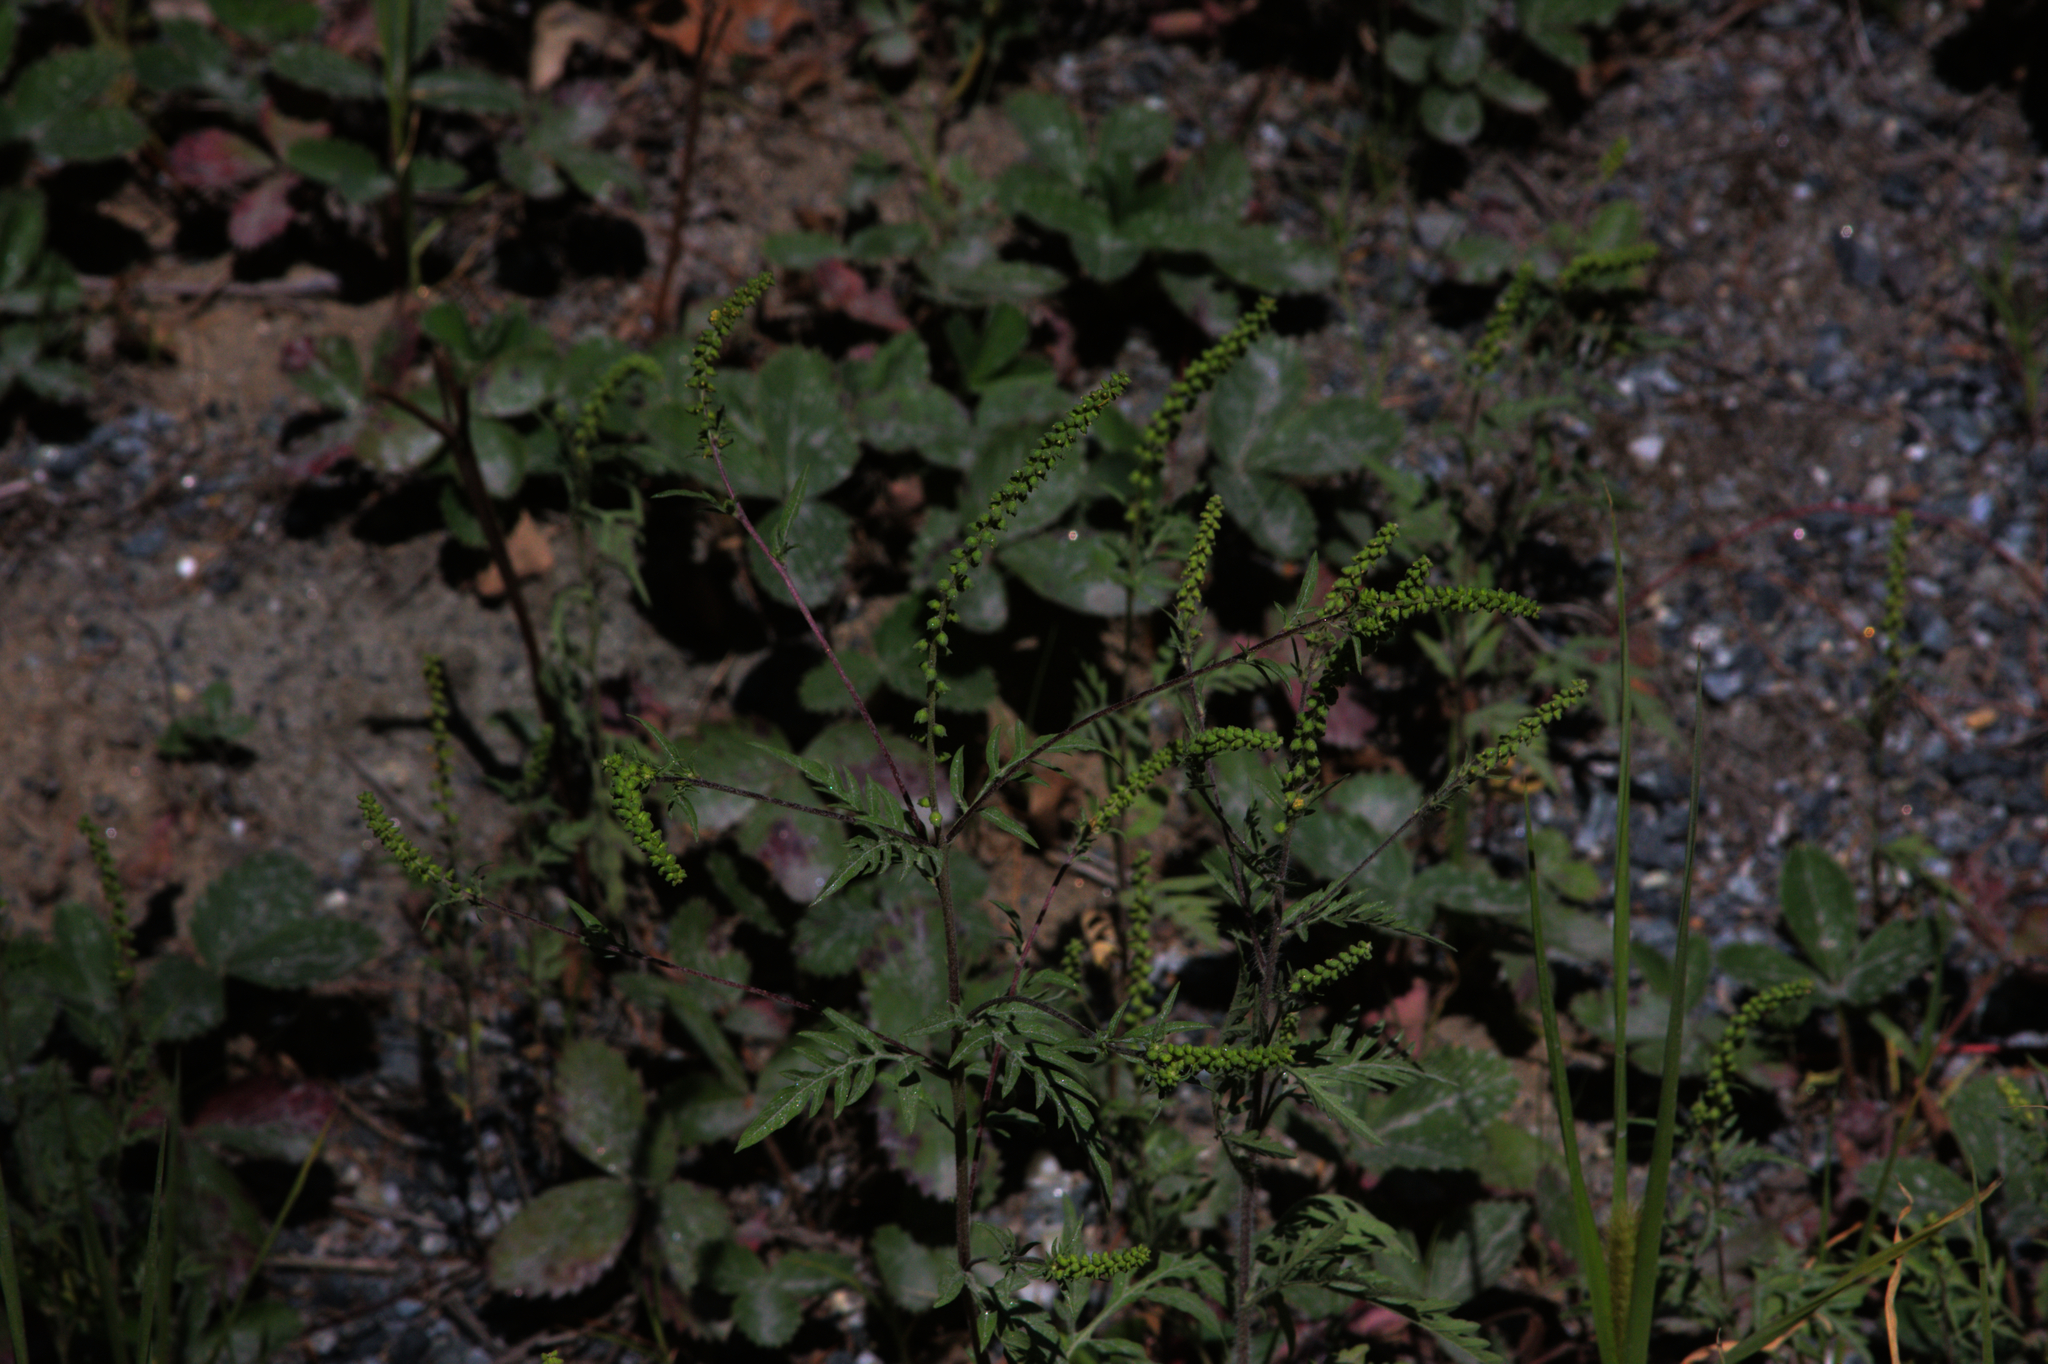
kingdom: Plantae
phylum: Tracheophyta
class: Magnoliopsida
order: Asterales
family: Asteraceae
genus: Ambrosia
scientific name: Ambrosia artemisiifolia
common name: Annual ragweed
